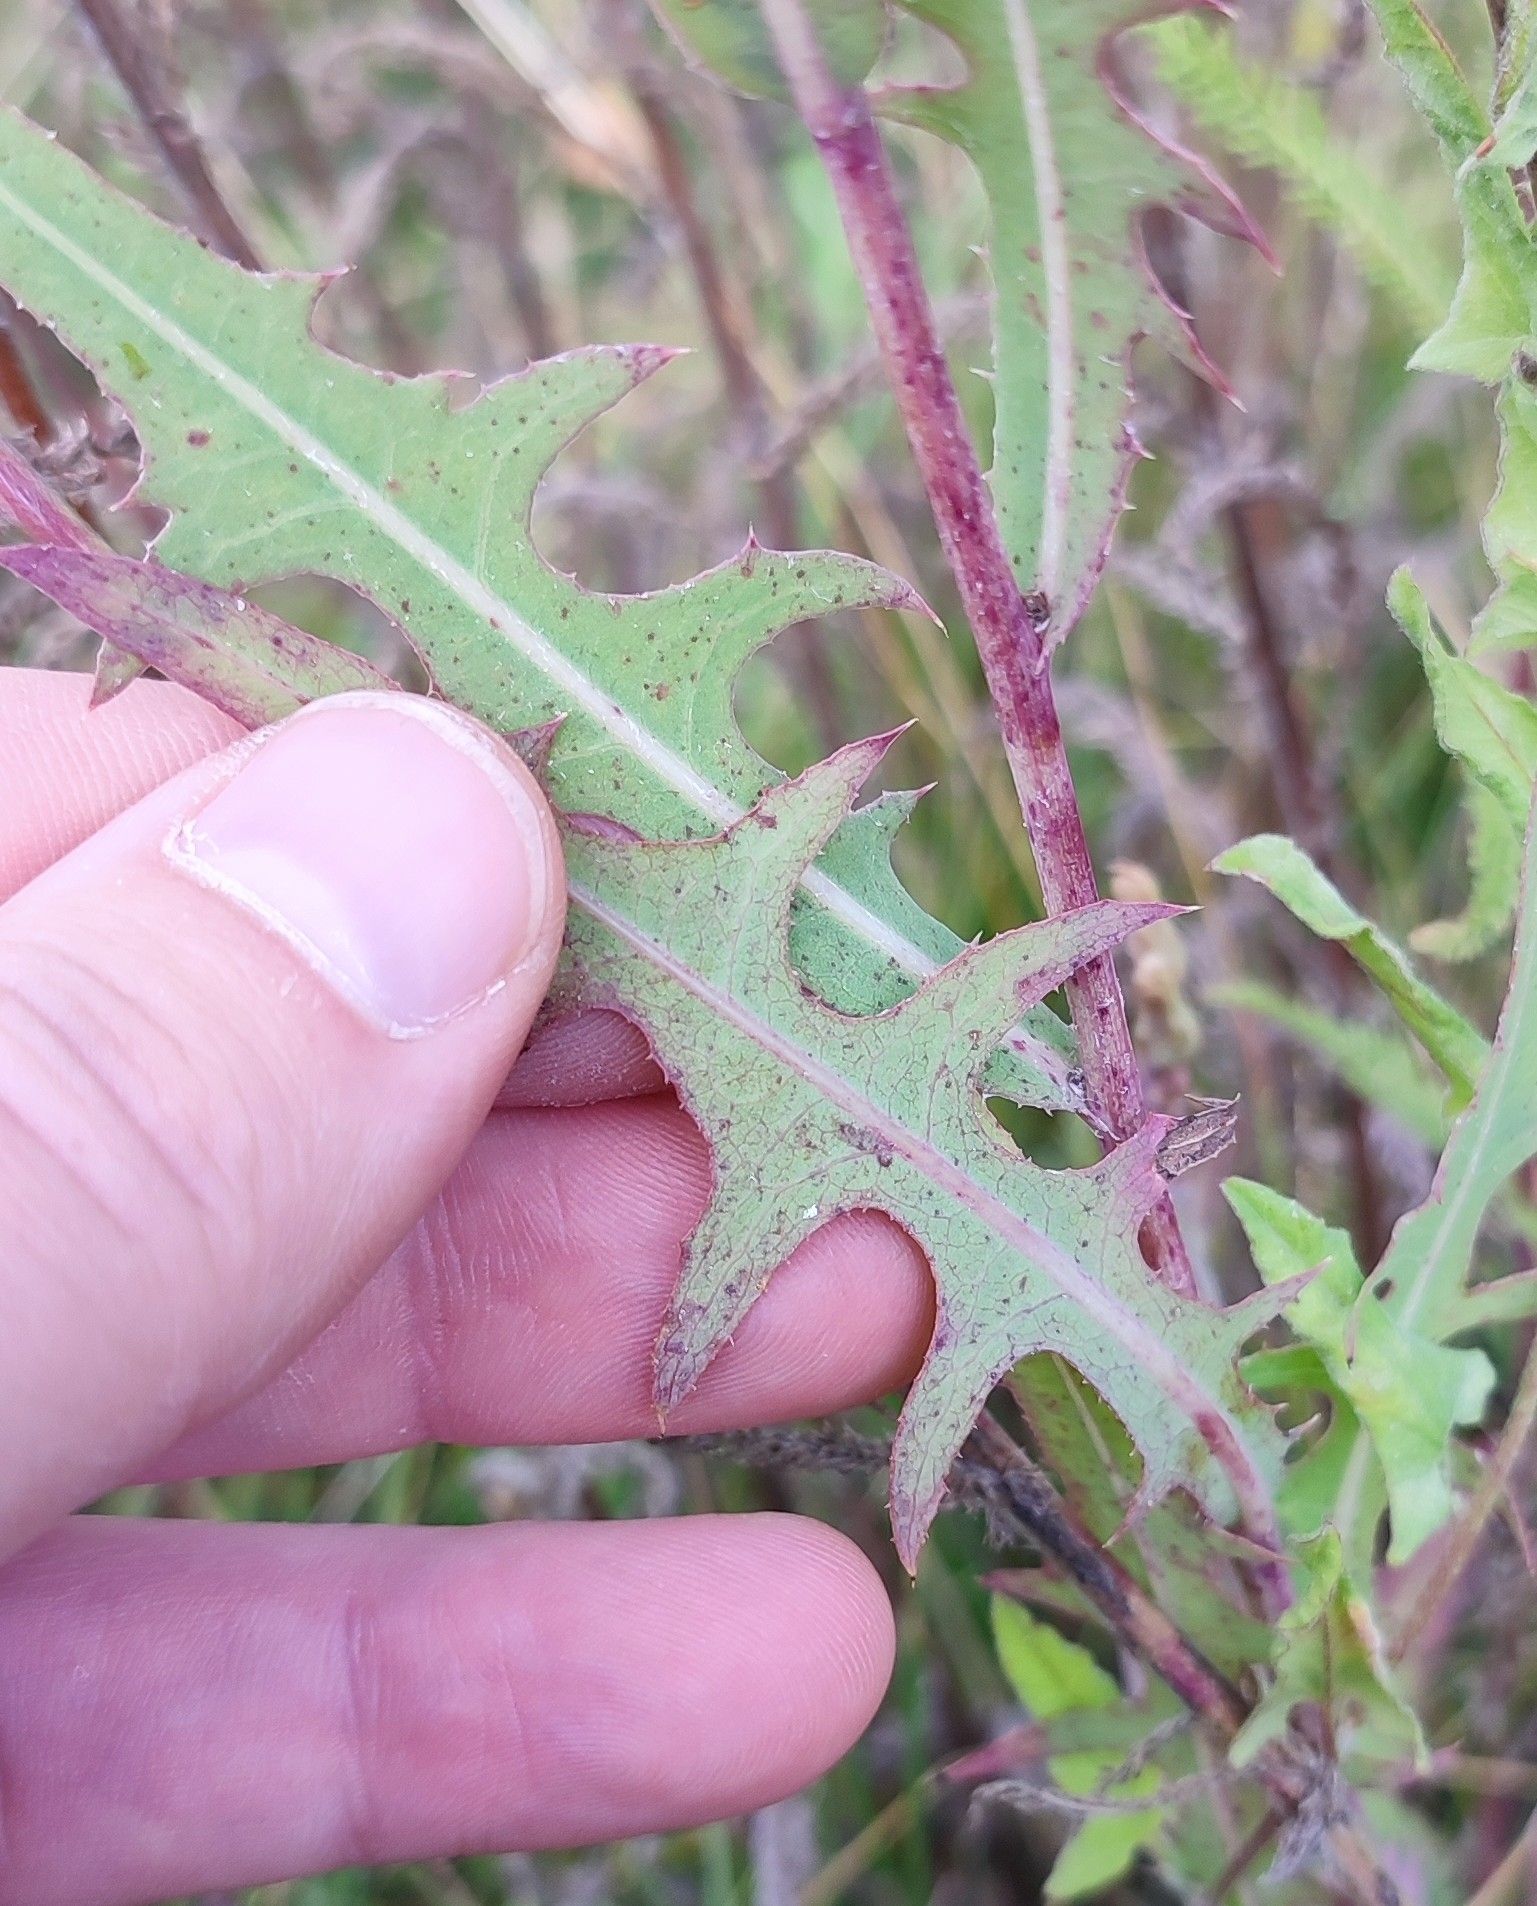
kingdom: Plantae
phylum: Tracheophyta
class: Magnoliopsida
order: Asterales
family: Asteraceae
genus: Lactuca
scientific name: Lactuca tatarica
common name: Blue lettuce
